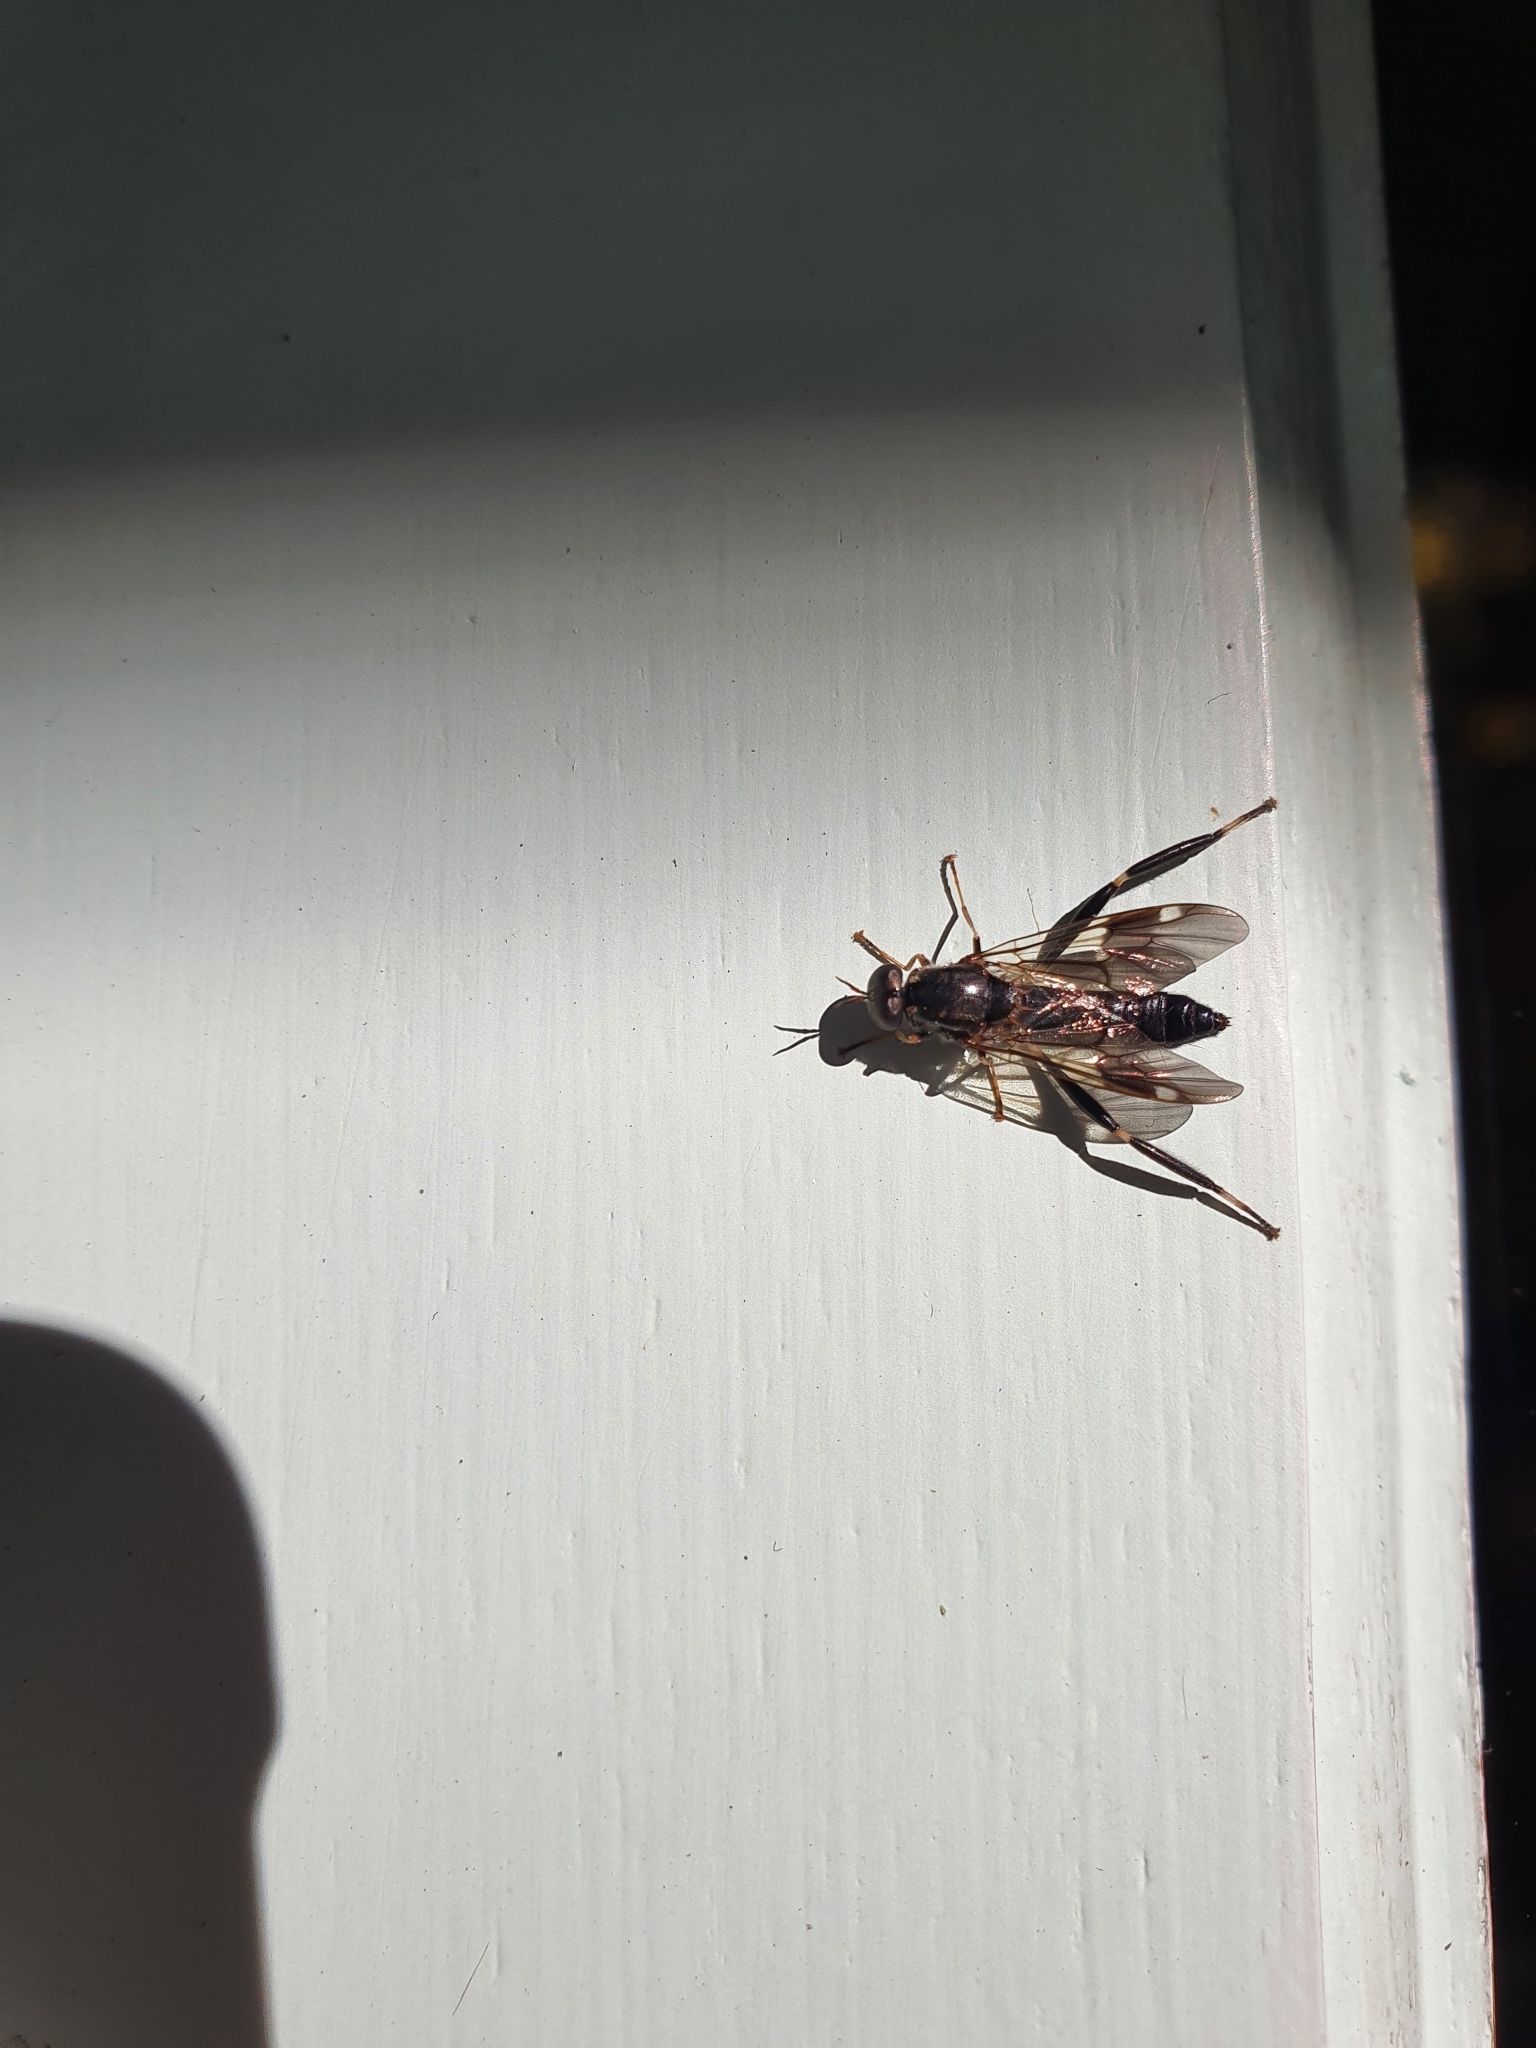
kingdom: Animalia
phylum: Arthropoda
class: Insecta
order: Diptera
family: Stratiomyidae
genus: Exaireta
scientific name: Exaireta spinigera
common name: Blue soldier fly
